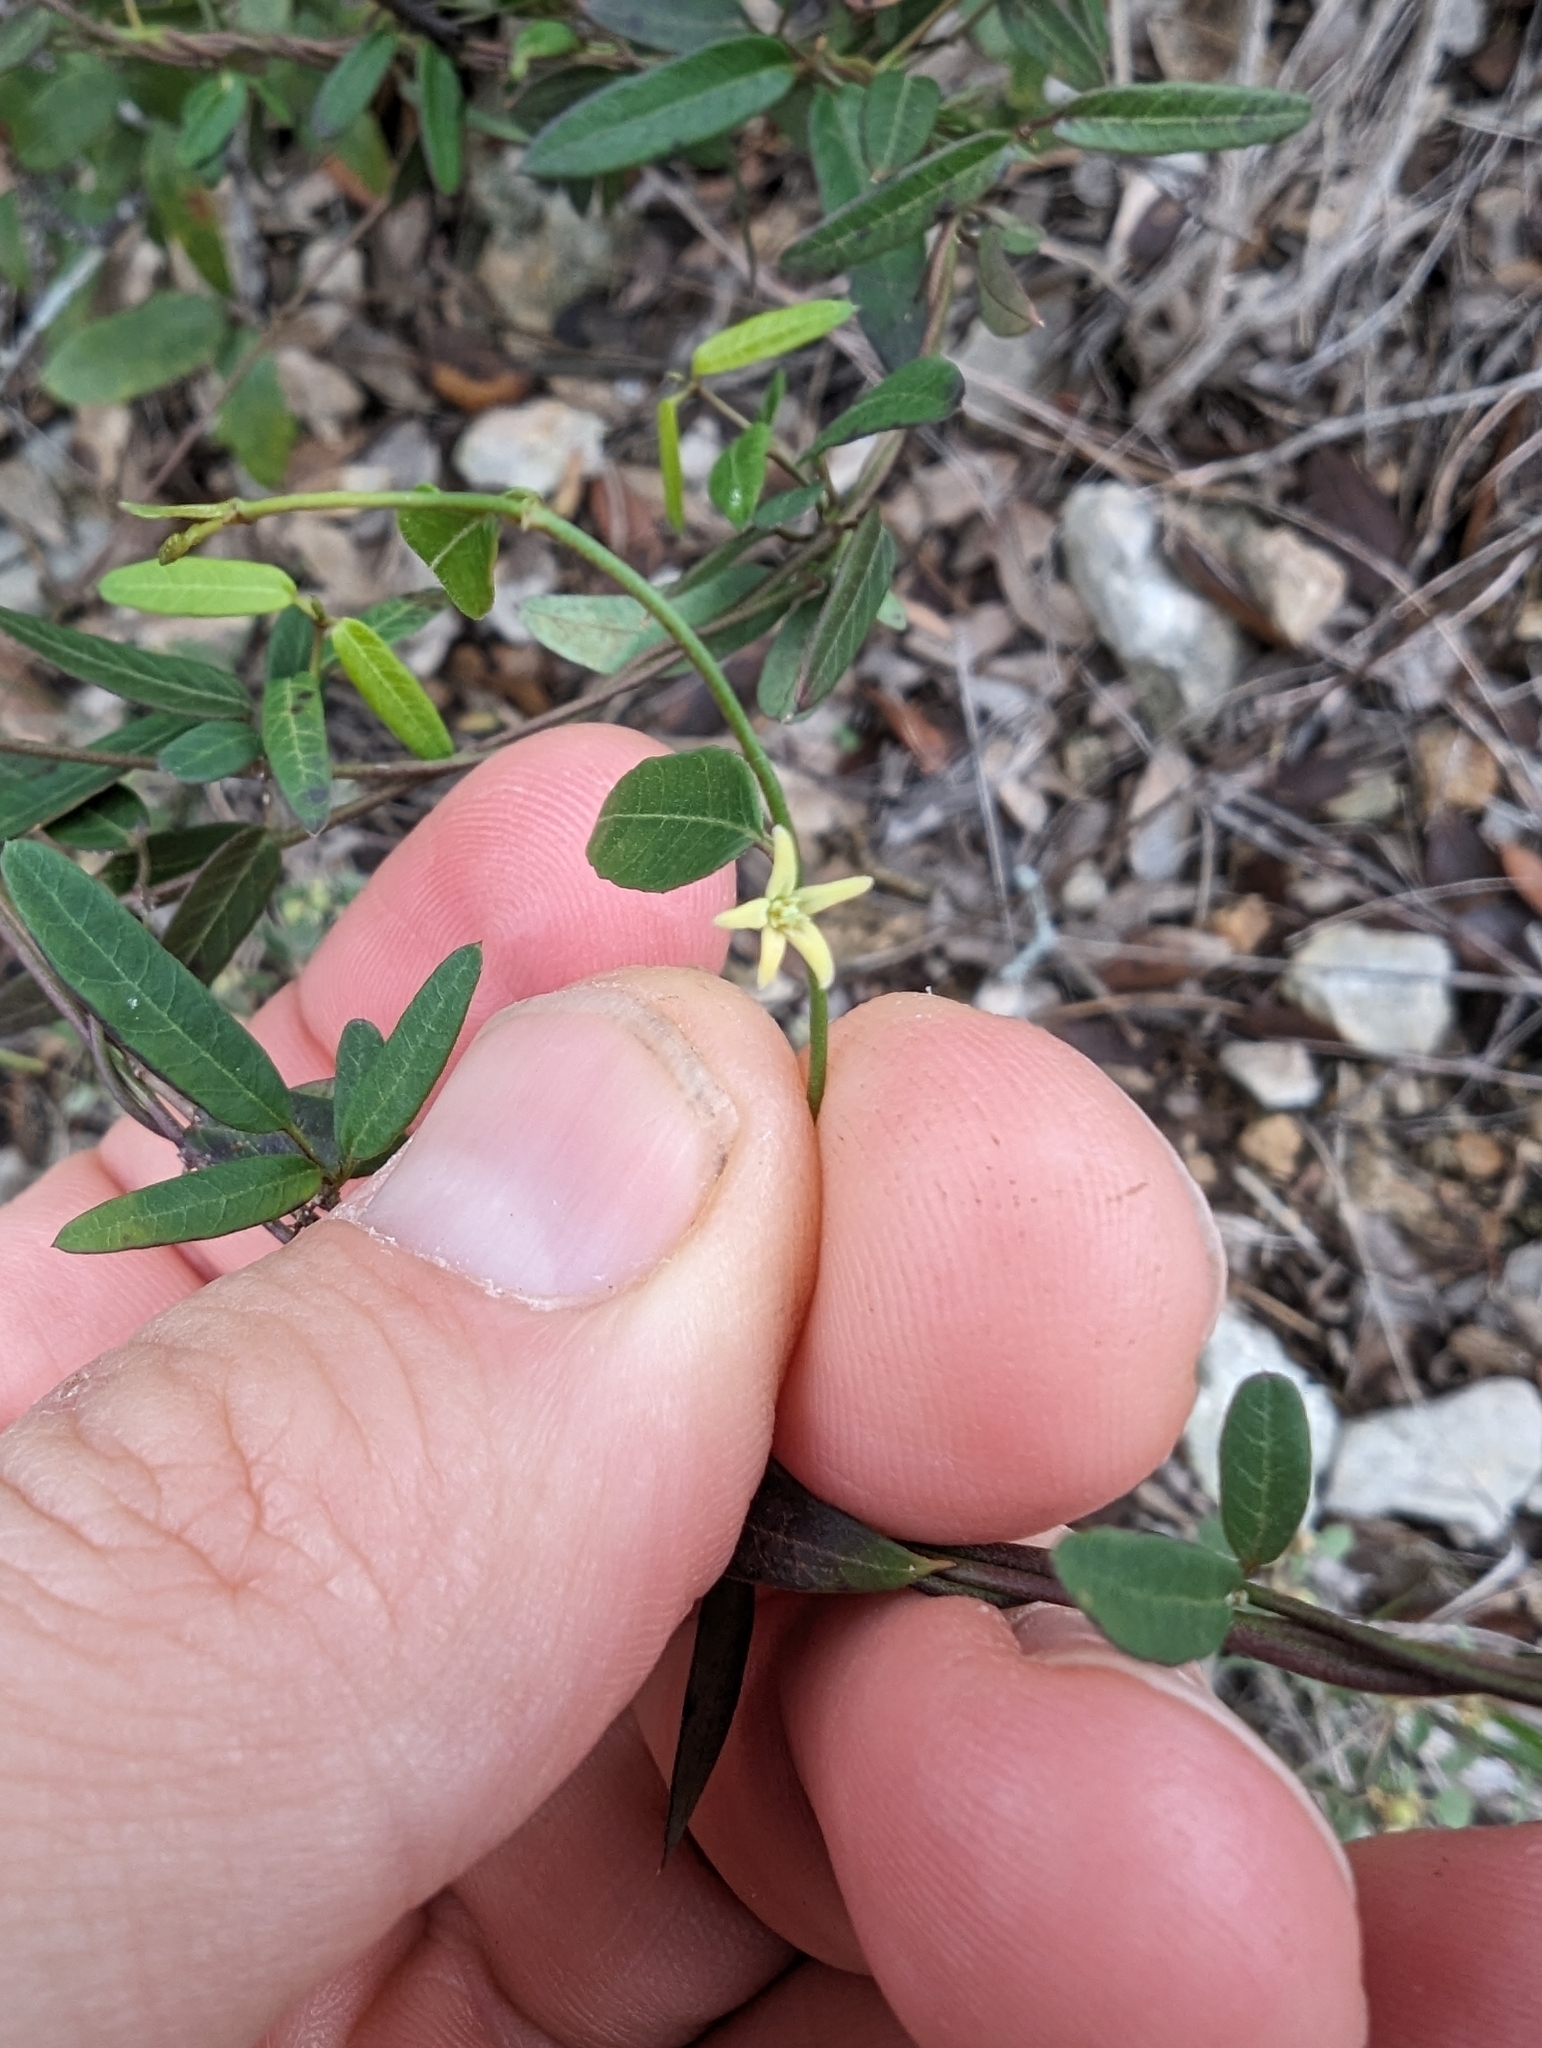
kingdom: Plantae
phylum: Tracheophyta
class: Magnoliopsida
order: Gentianales
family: Apocynaceae
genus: Metastelma
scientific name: Metastelma palmeri
